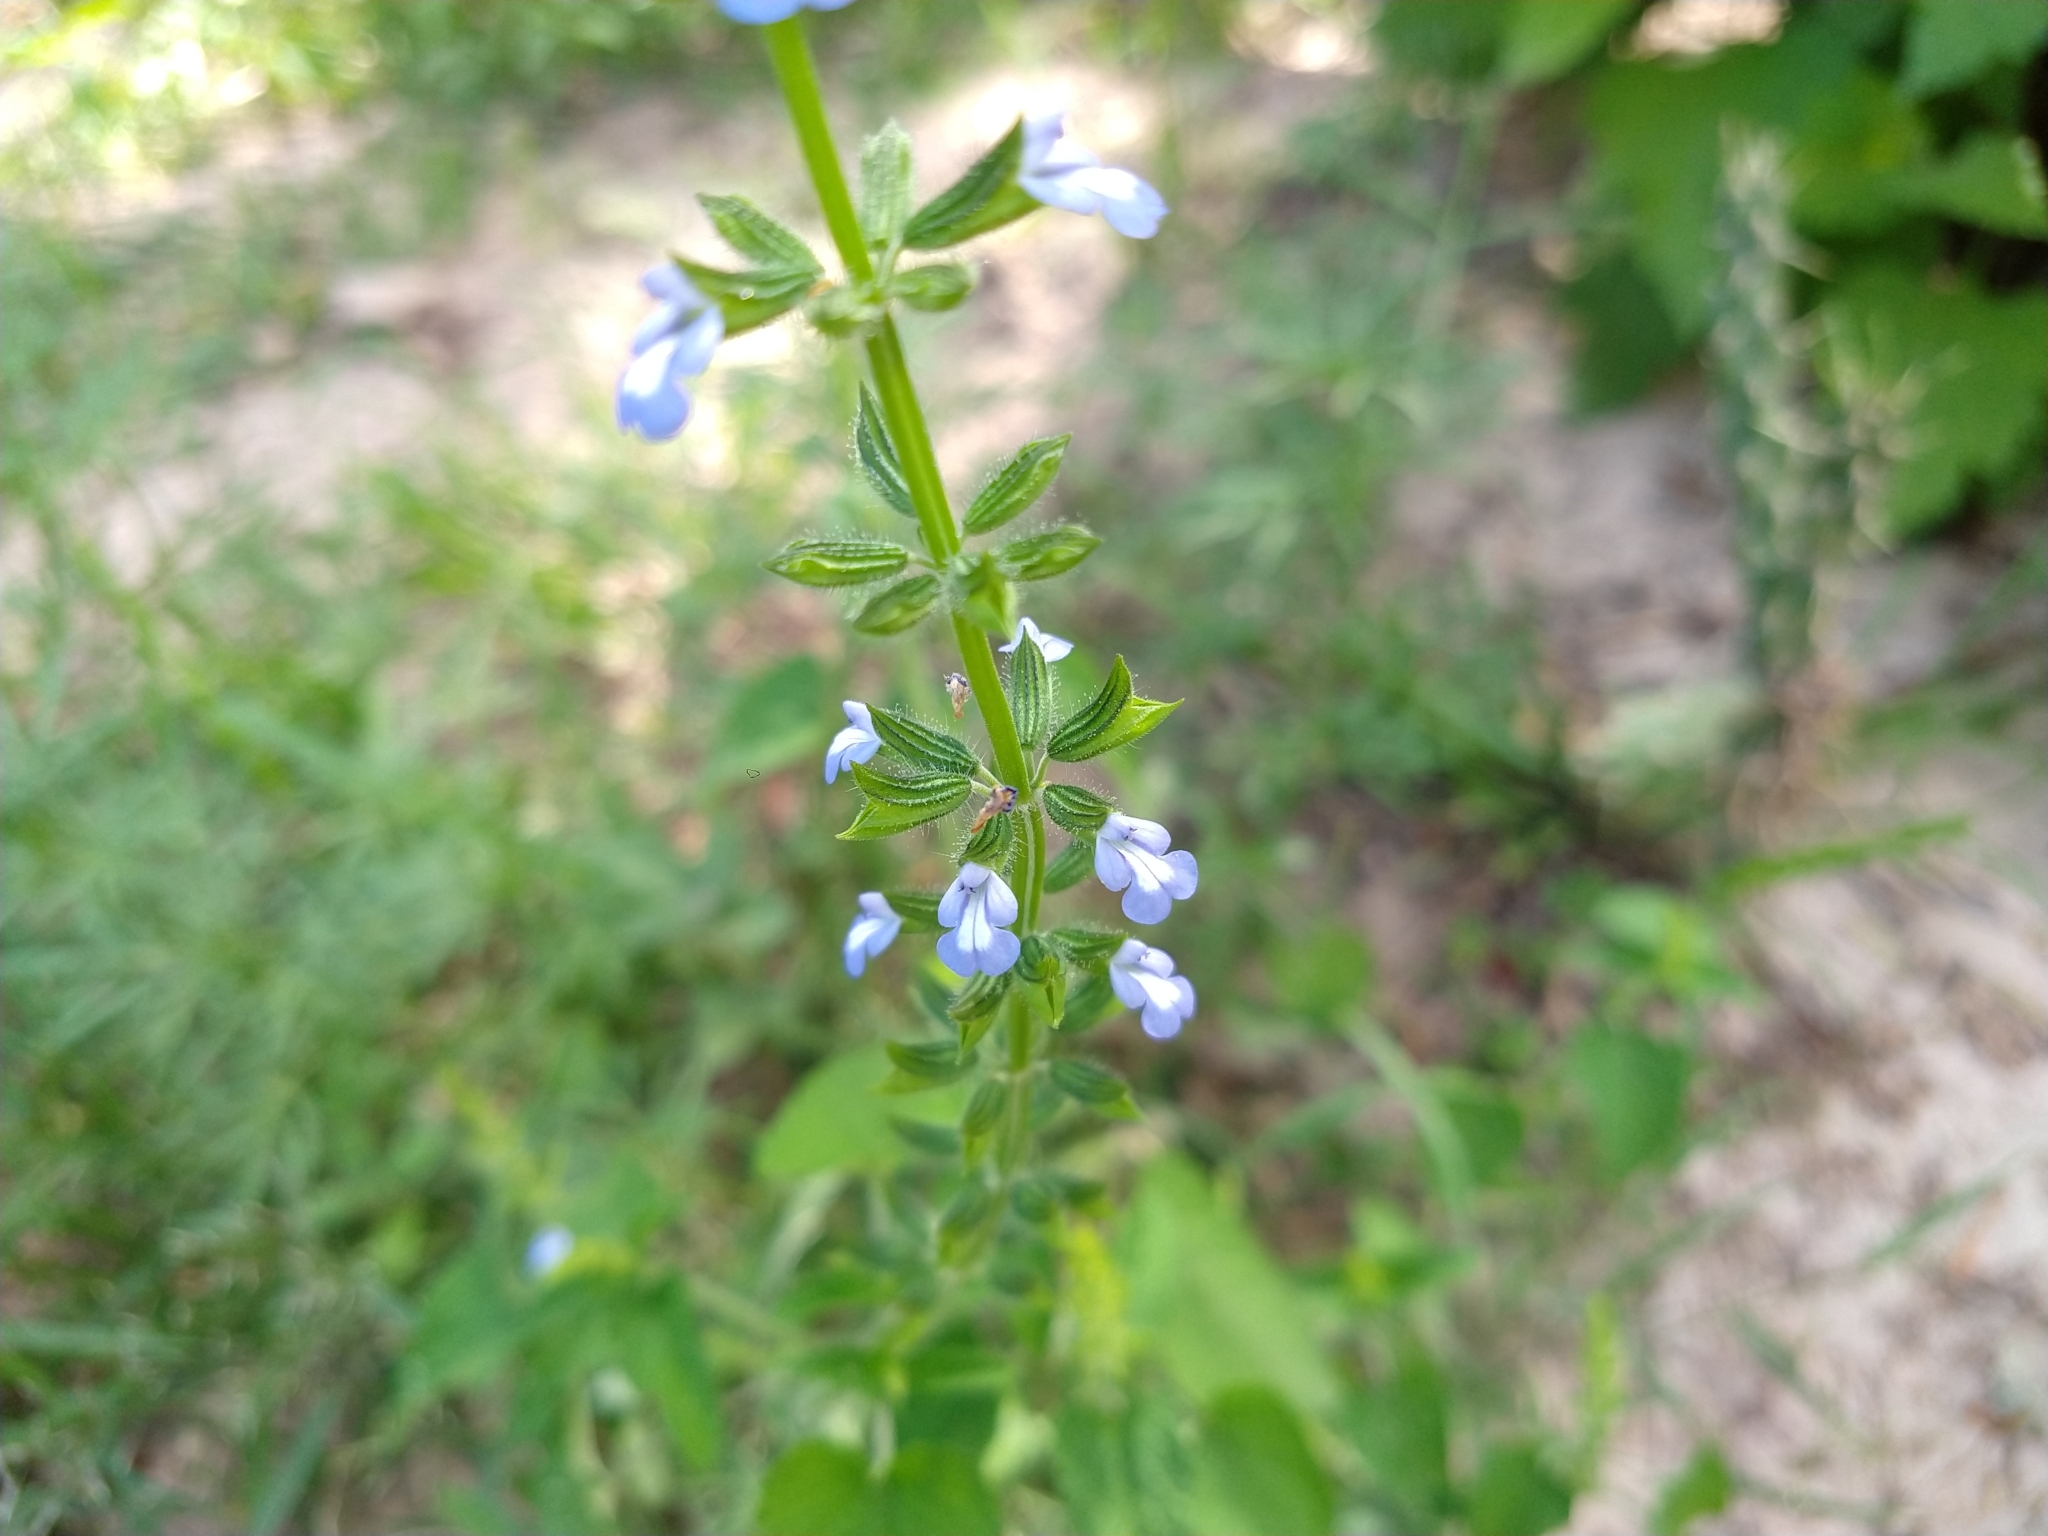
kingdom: Plantae
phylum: Tracheophyta
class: Magnoliopsida
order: Lamiales
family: Lamiaceae
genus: Salvia
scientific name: Salvia podadena
